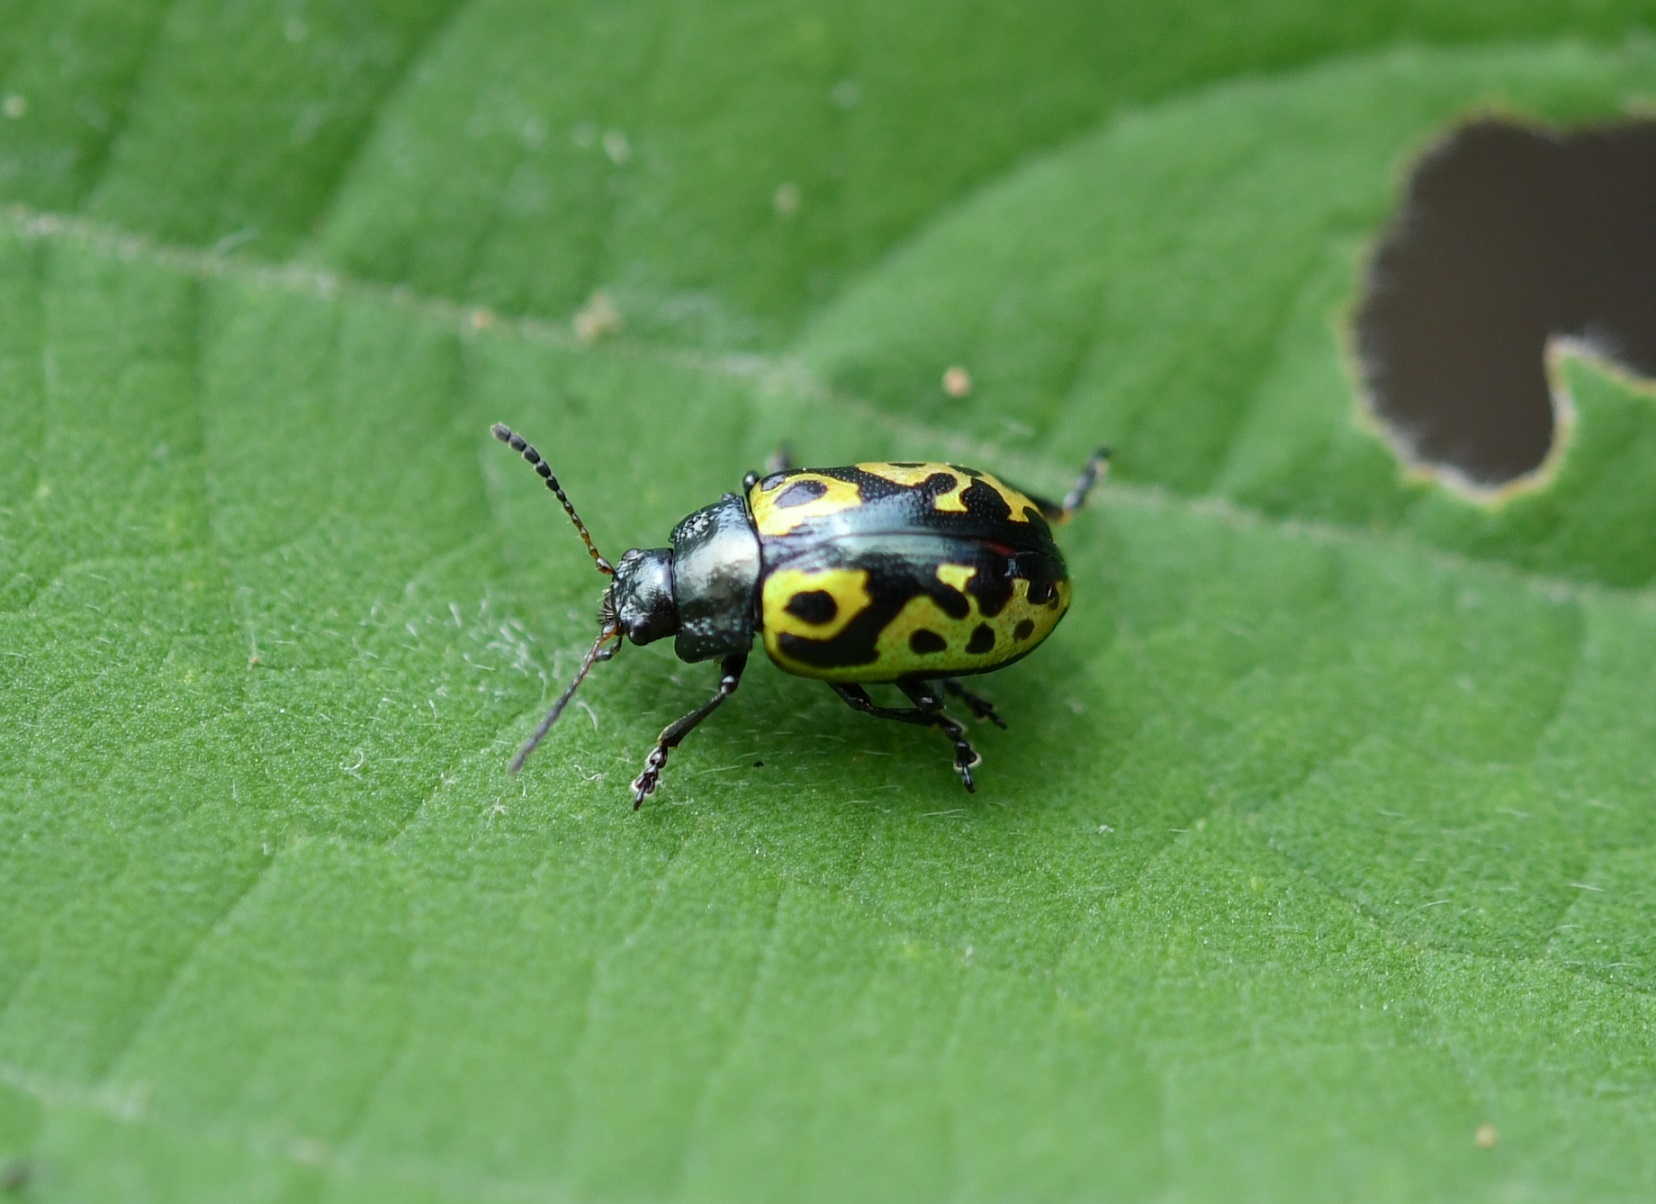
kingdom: Animalia
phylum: Arthropoda
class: Insecta
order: Coleoptera
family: Chrysomelidae
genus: Calligrapha
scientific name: Calligrapha
